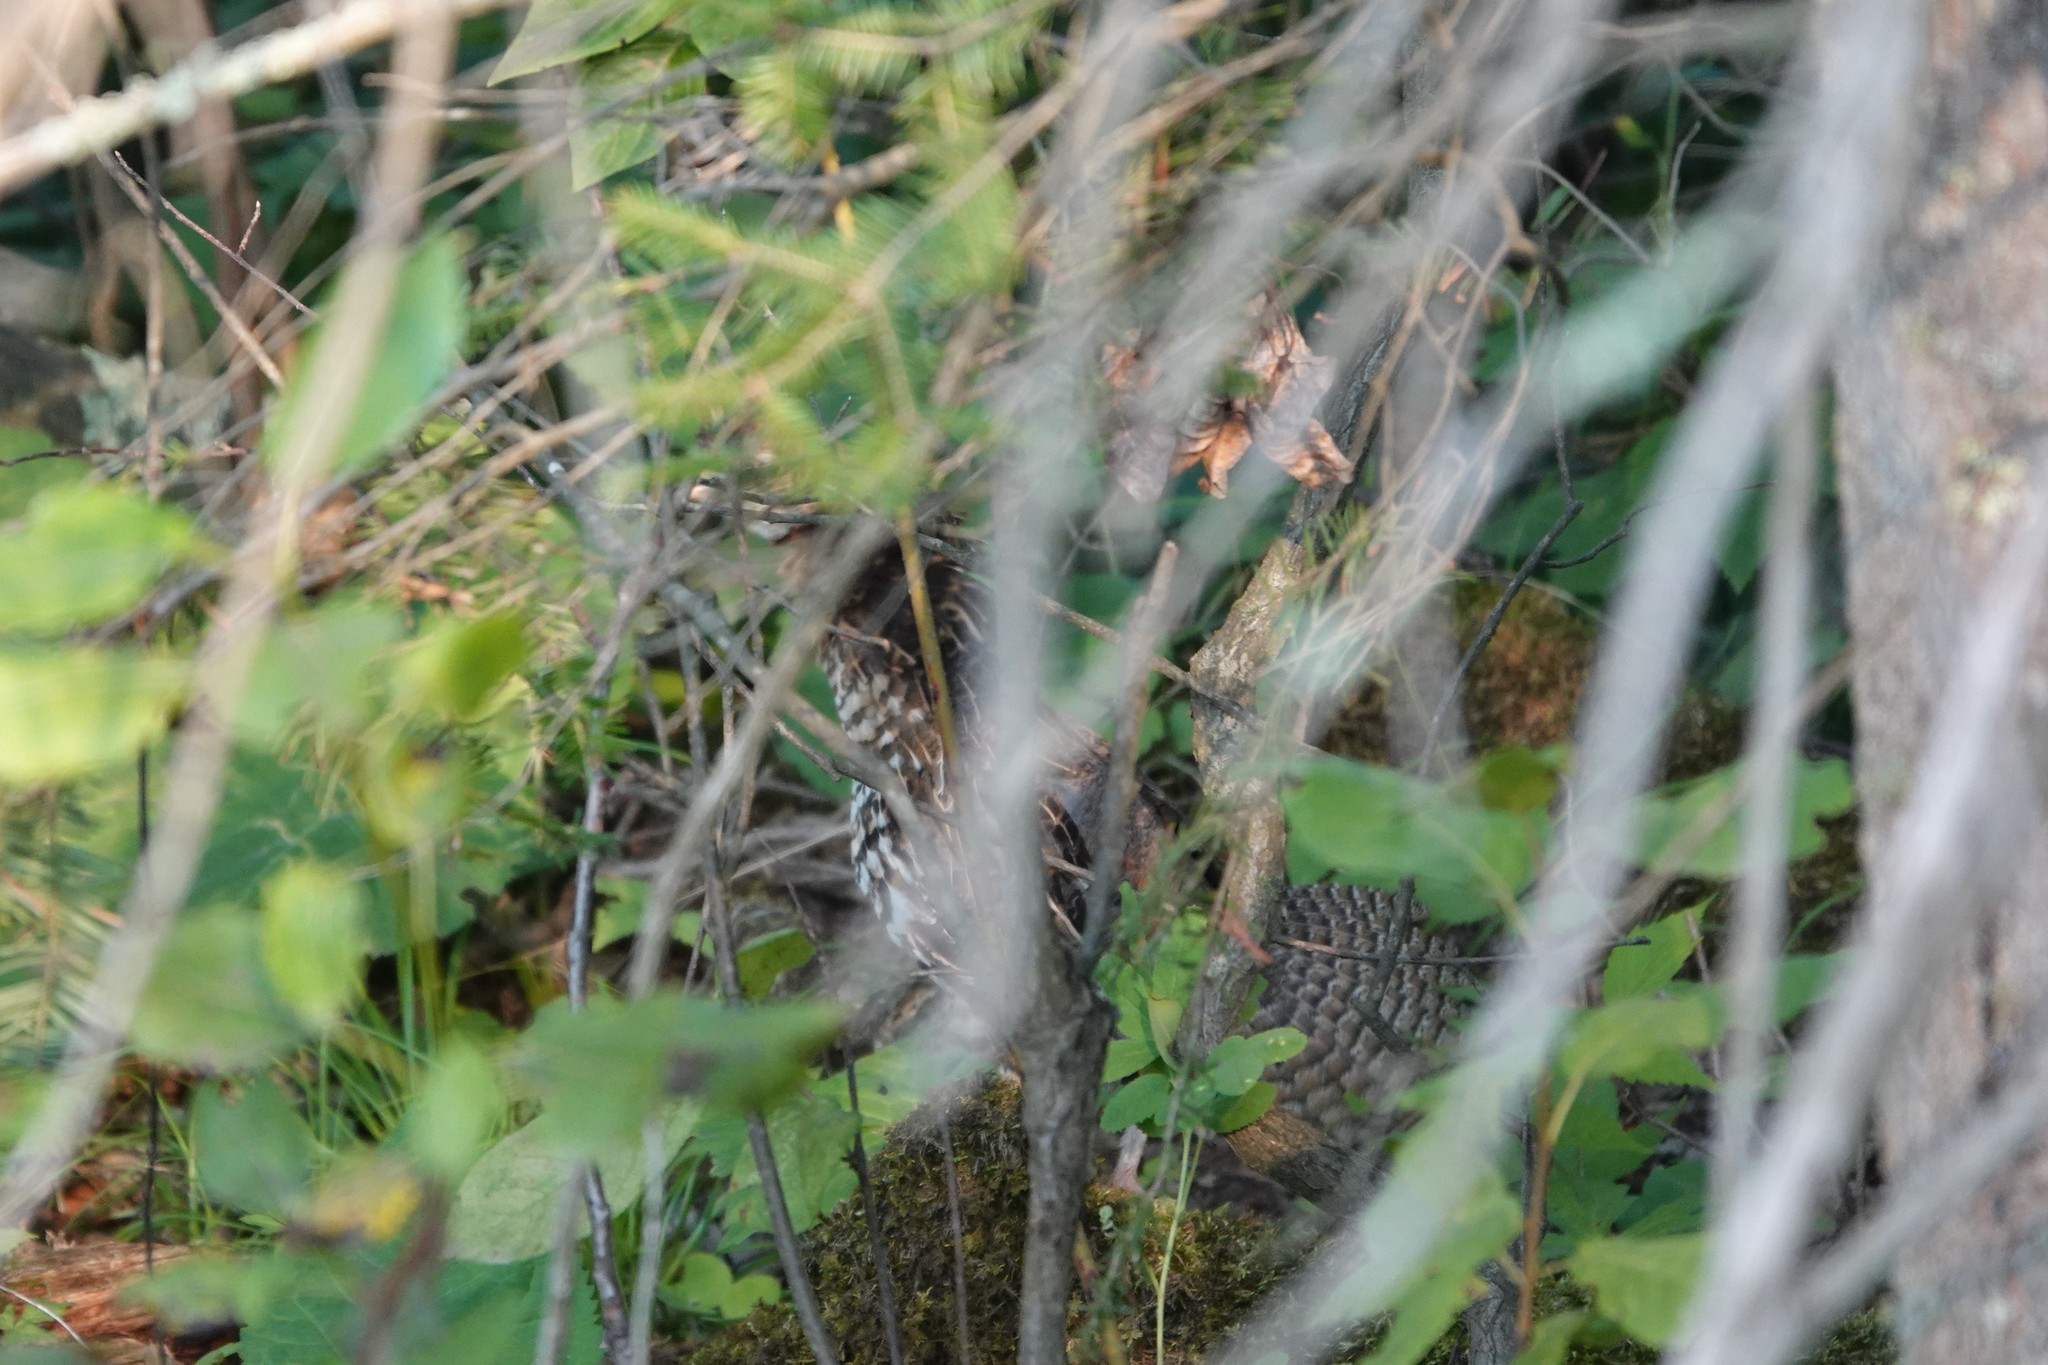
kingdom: Animalia
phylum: Chordata
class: Aves
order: Galliformes
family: Phasianidae
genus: Bonasa
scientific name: Bonasa umbellus
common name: Ruffed grouse
